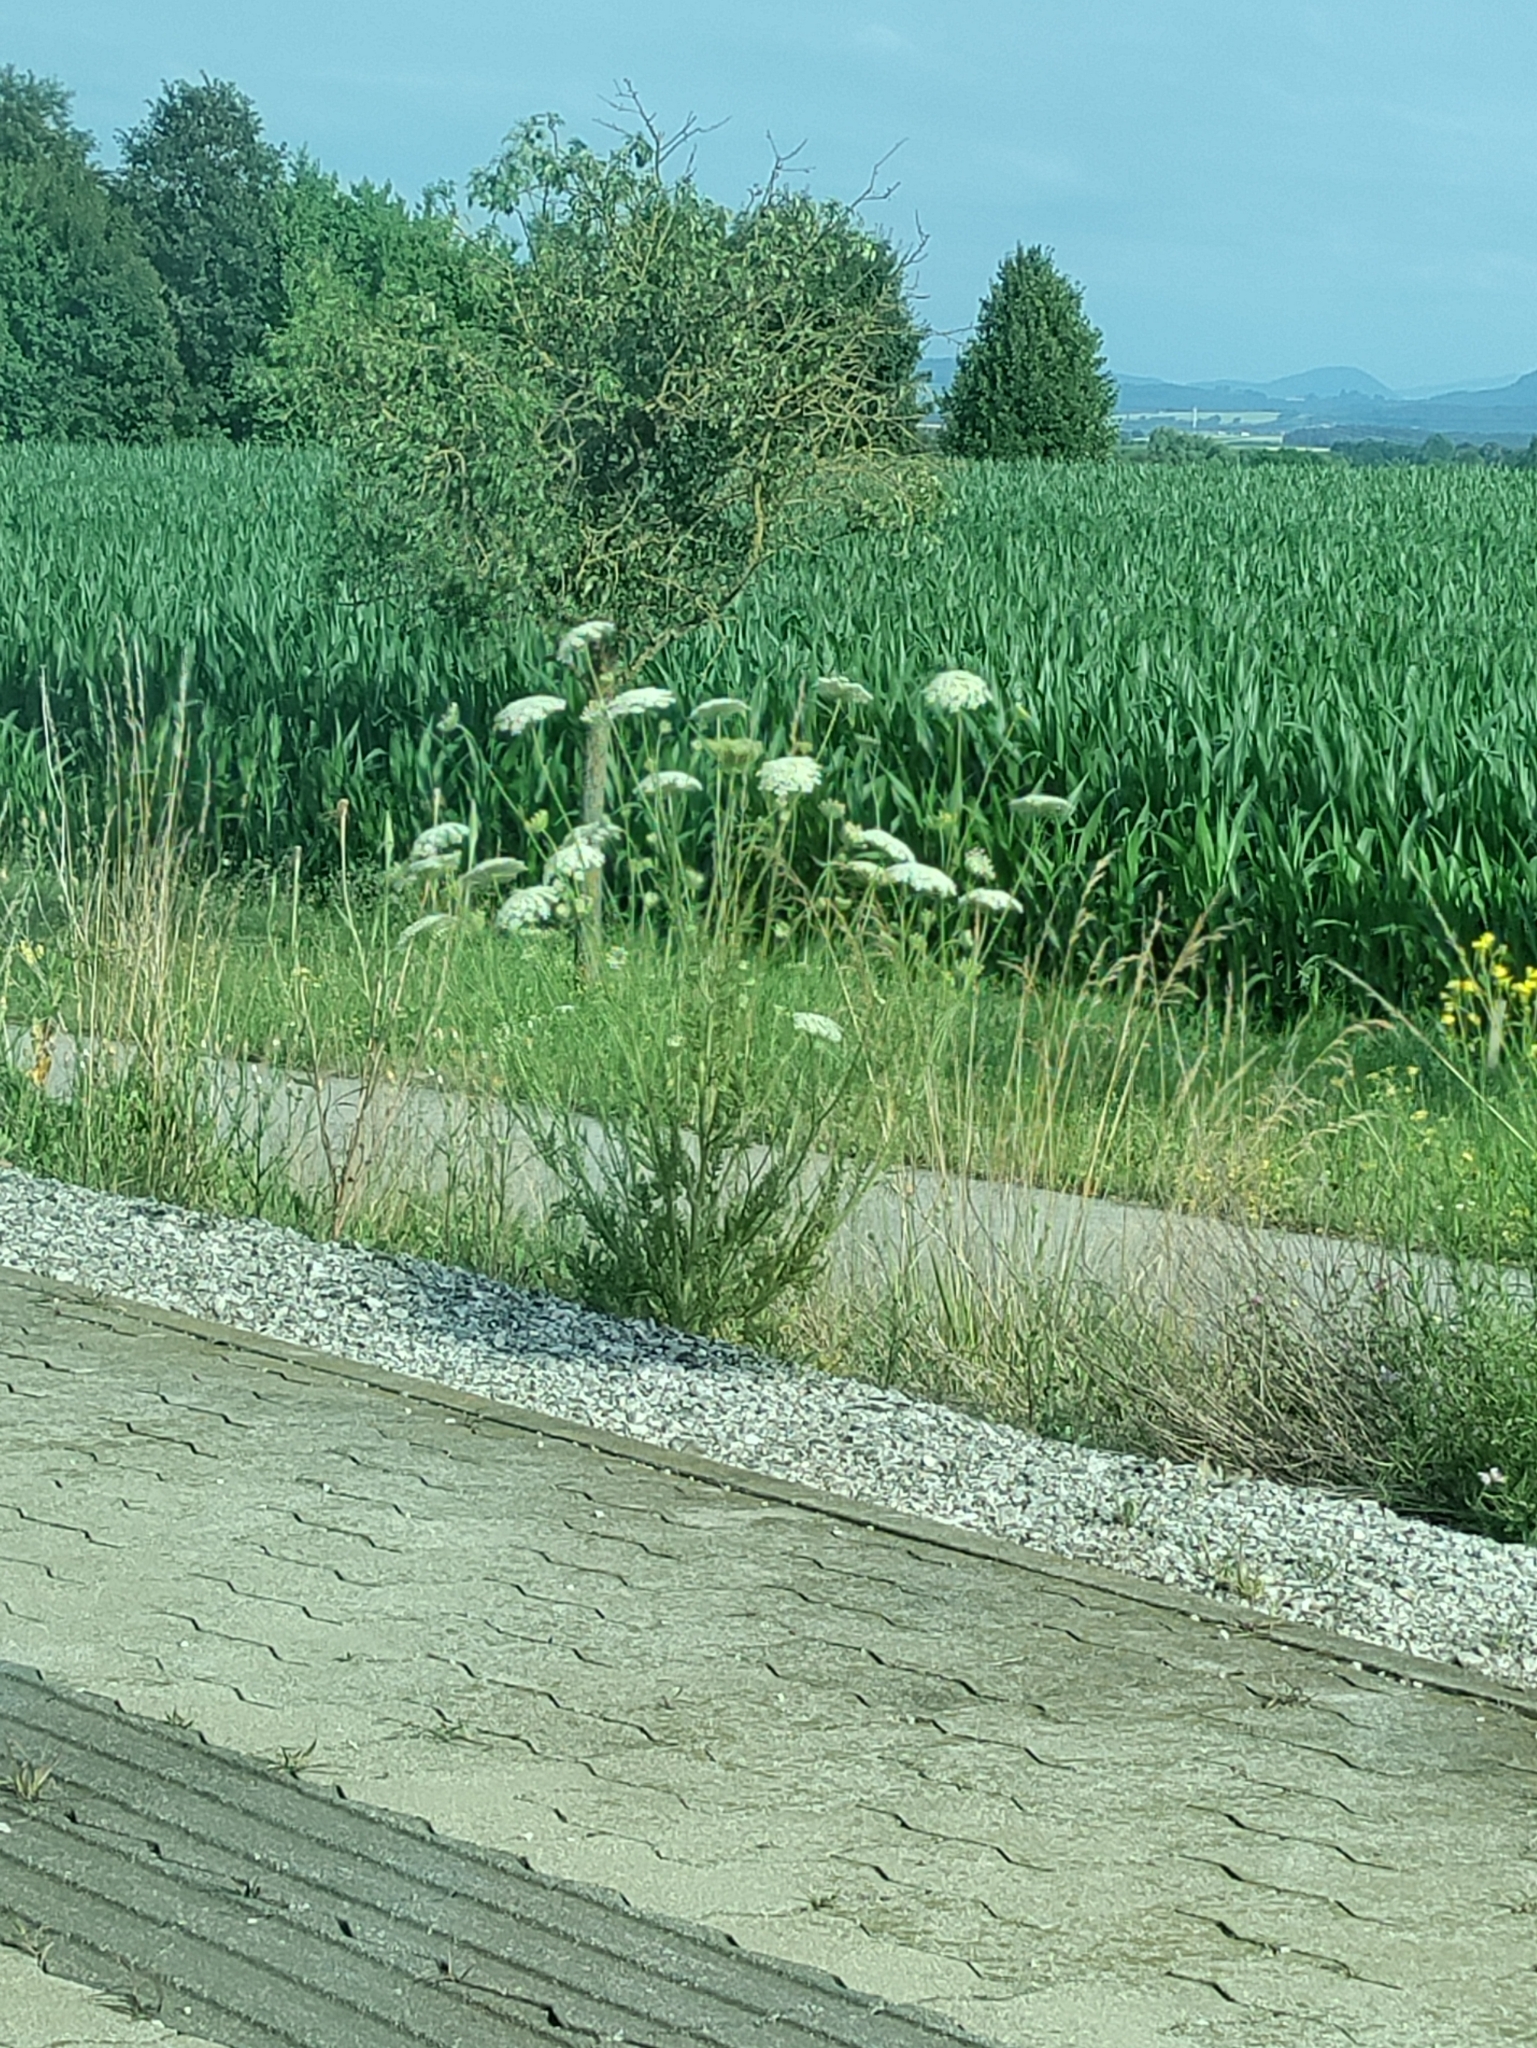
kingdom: Plantae
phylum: Tracheophyta
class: Magnoliopsida
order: Apiales
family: Apiaceae
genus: Daucus
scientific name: Daucus carota
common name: Wild carrot
